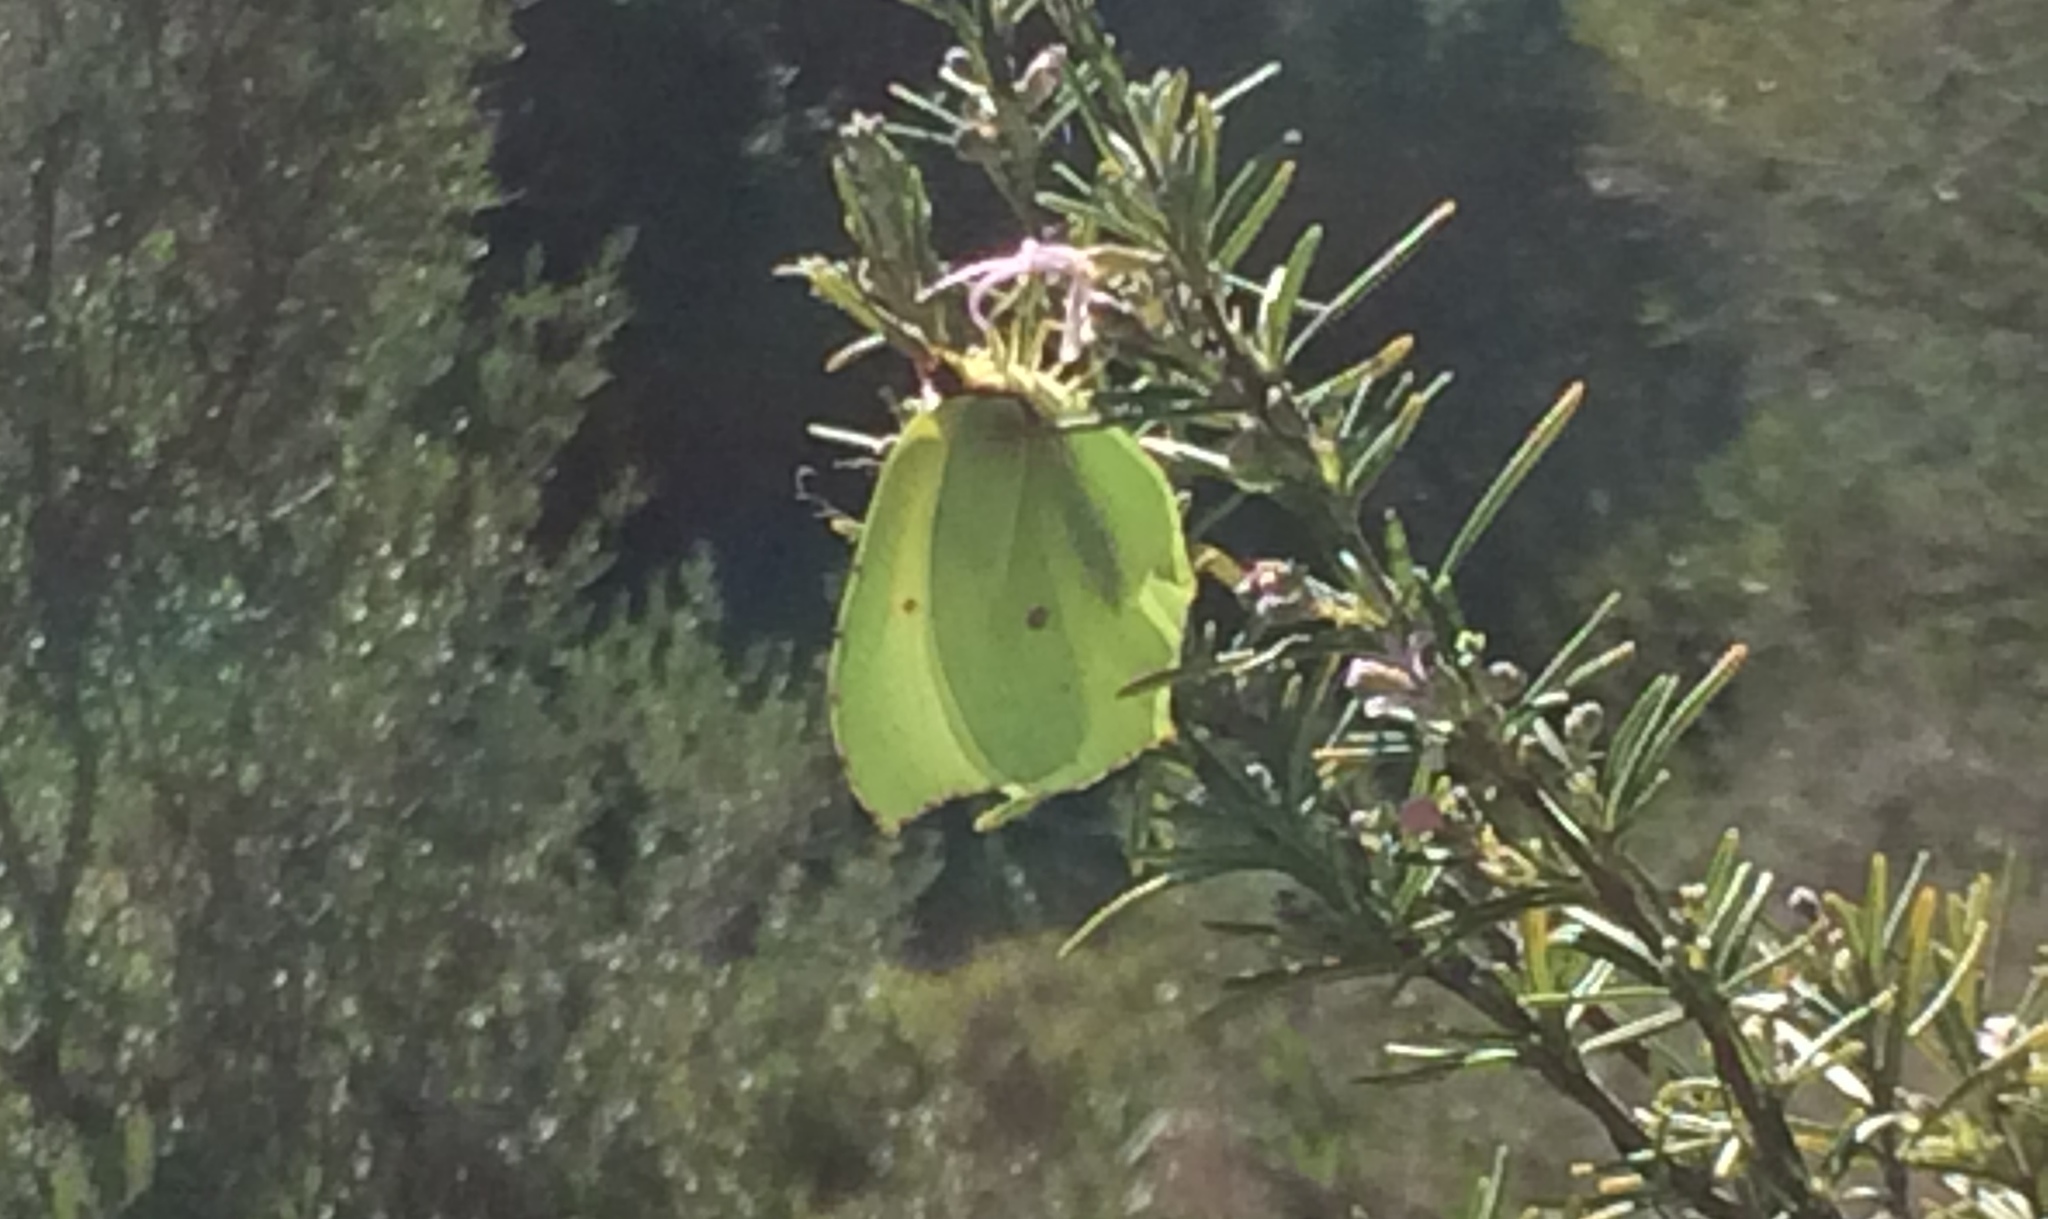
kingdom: Animalia
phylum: Arthropoda
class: Insecta
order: Lepidoptera
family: Pieridae
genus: Gonepteryx
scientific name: Gonepteryx rhamni
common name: Brimstone
